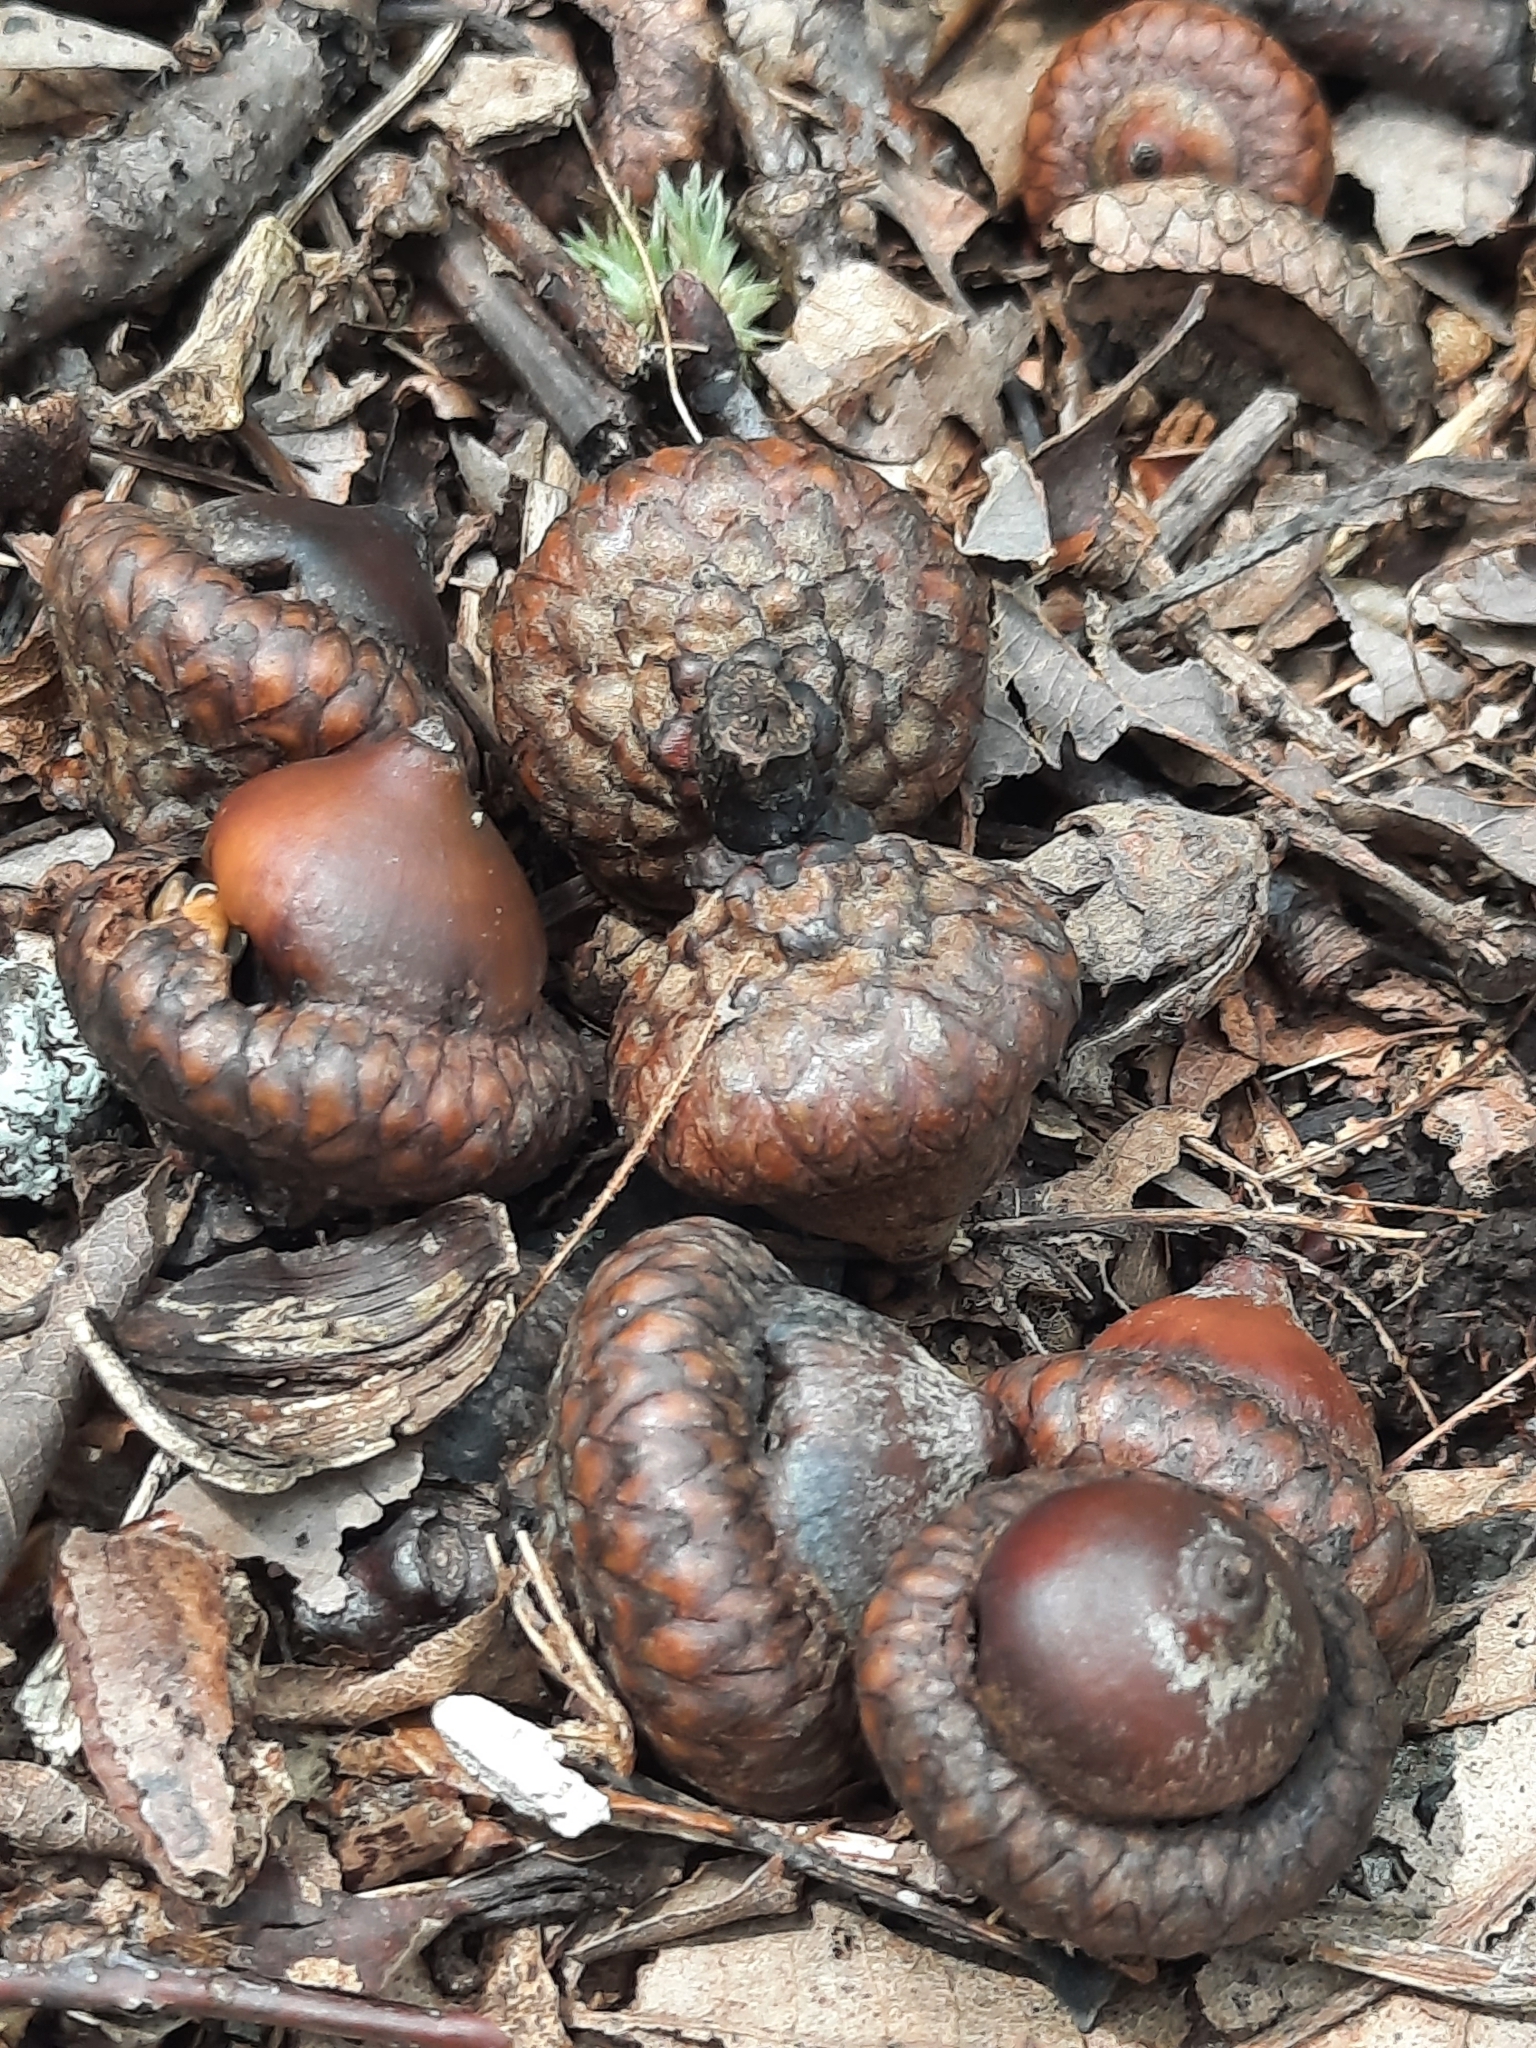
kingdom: Plantae
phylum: Tracheophyta
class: Magnoliopsida
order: Fagales
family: Fagaceae
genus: Quercus
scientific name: Quercus rubra
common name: Red oak
